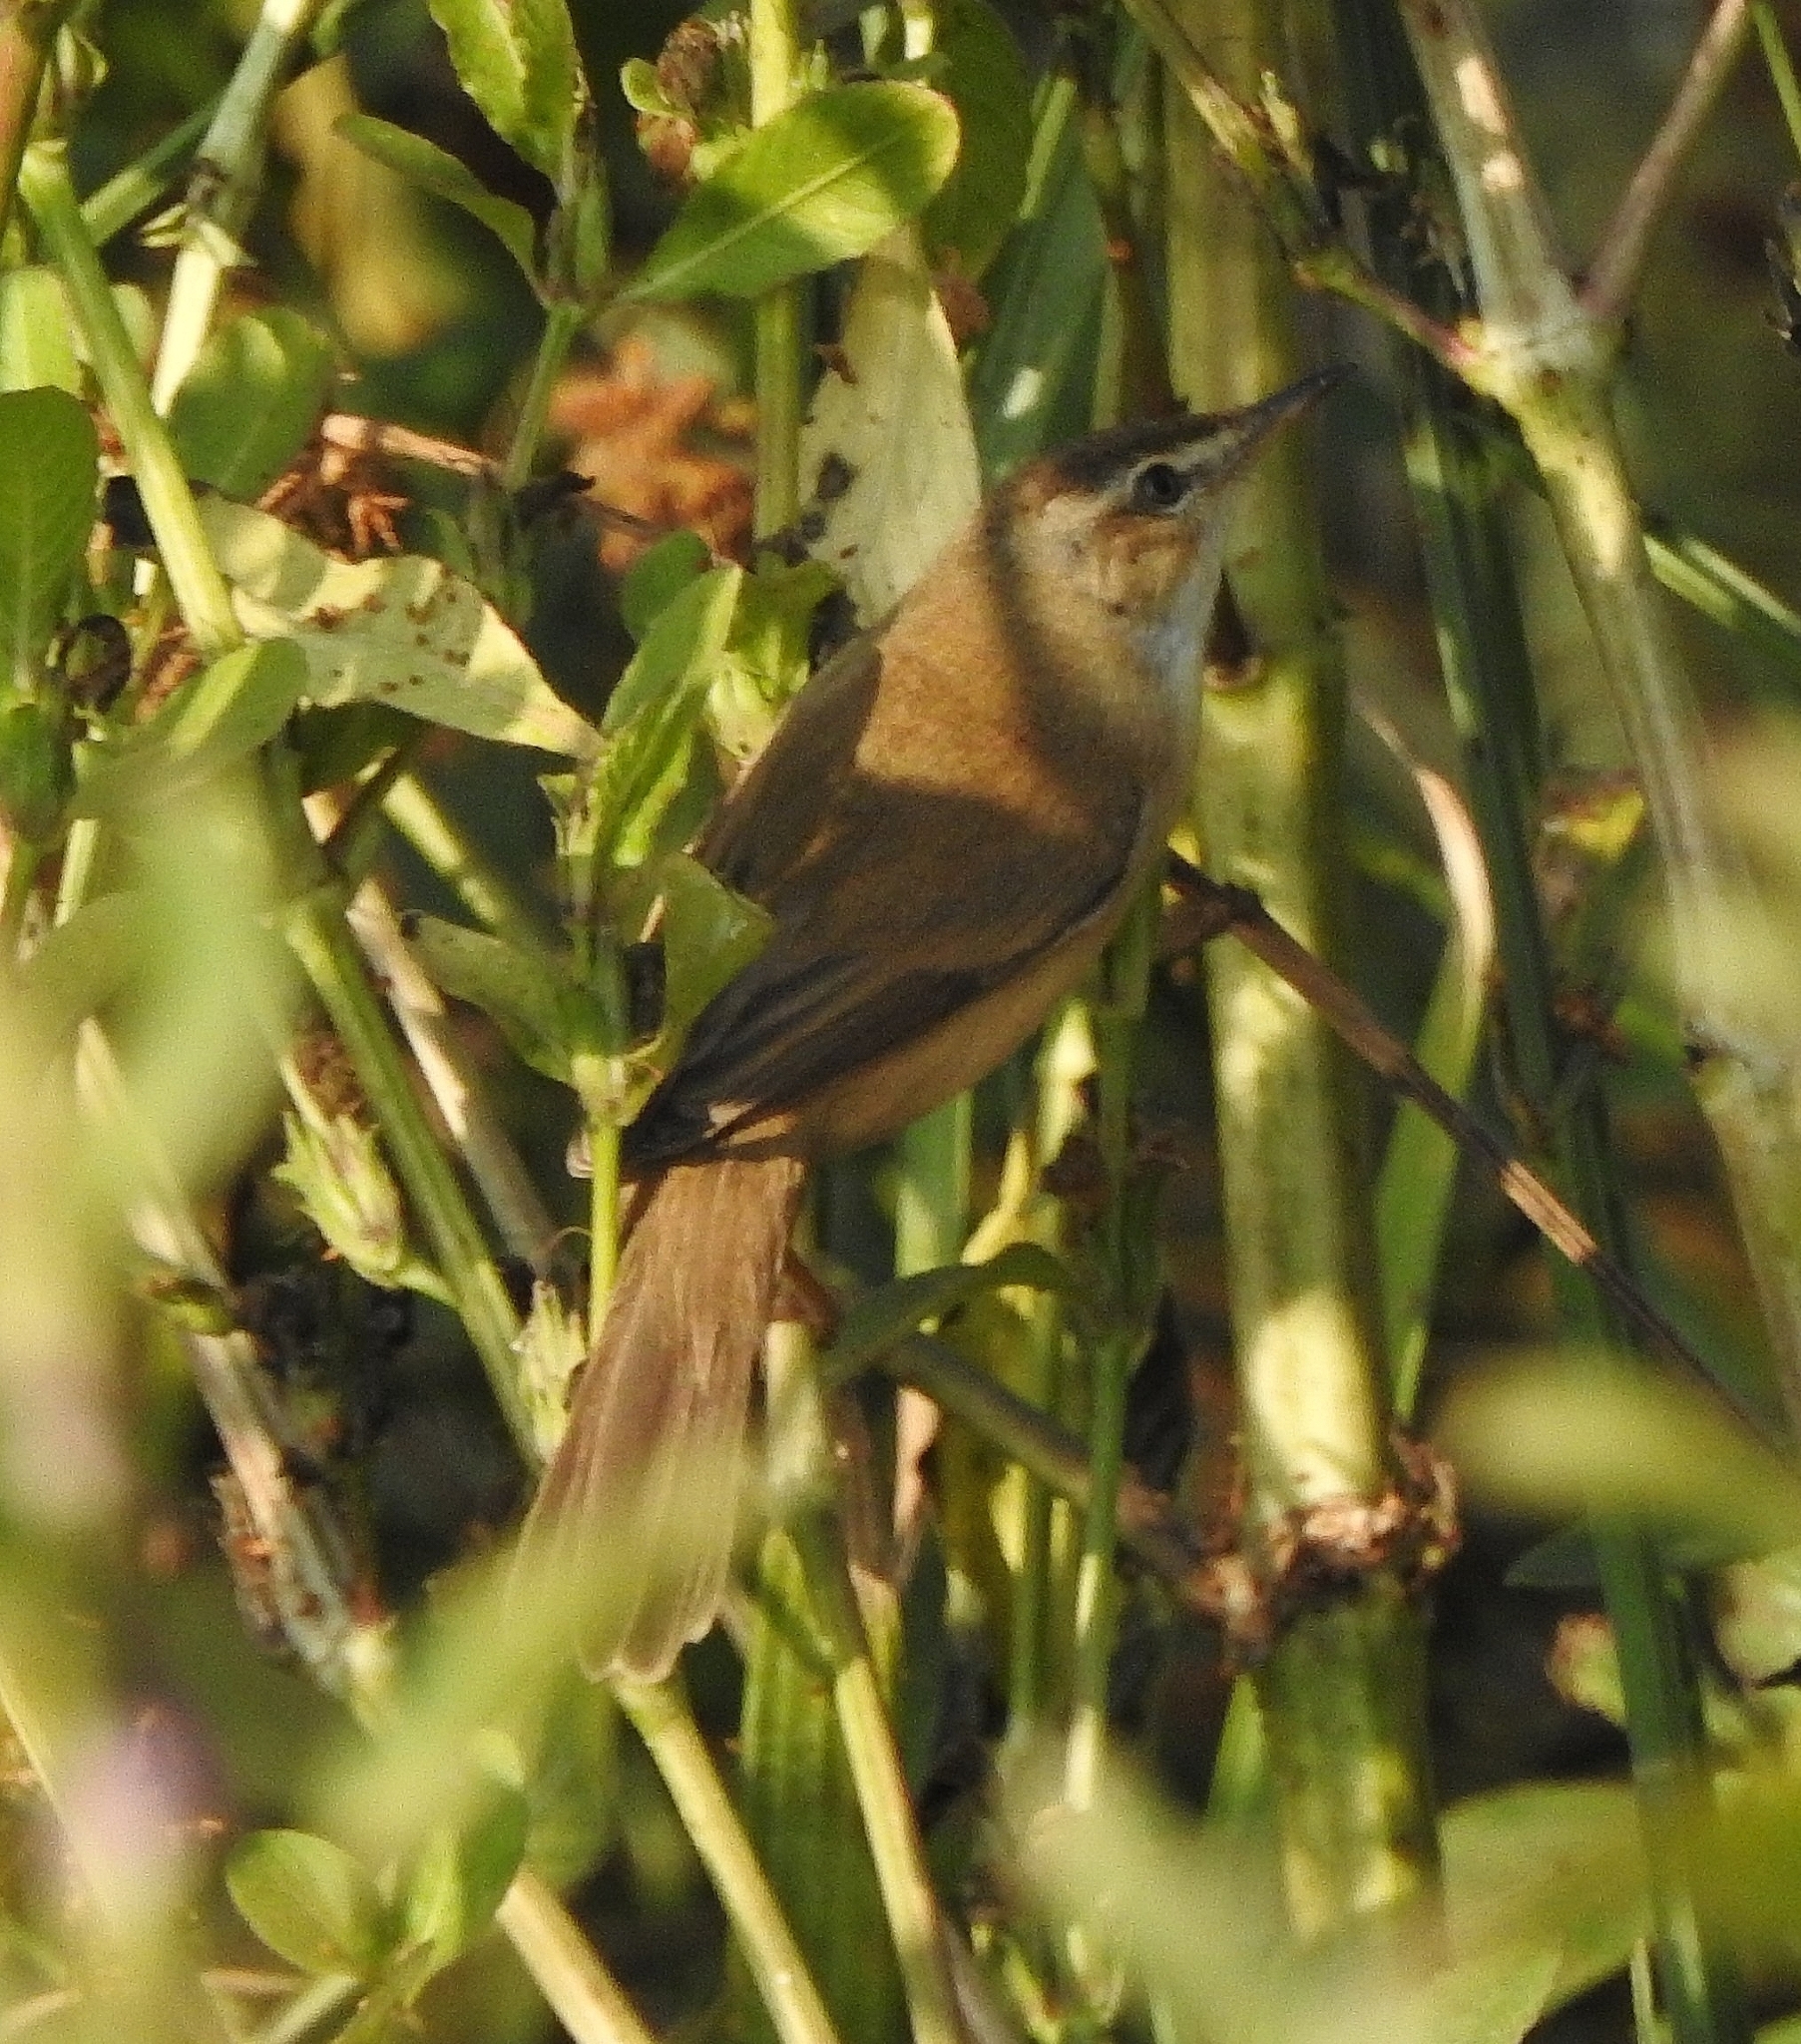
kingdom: Animalia
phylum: Chordata
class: Aves
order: Passeriformes
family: Acrocephalidae
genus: Acrocephalus
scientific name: Acrocephalus agricola
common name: Paddyfield warbler
